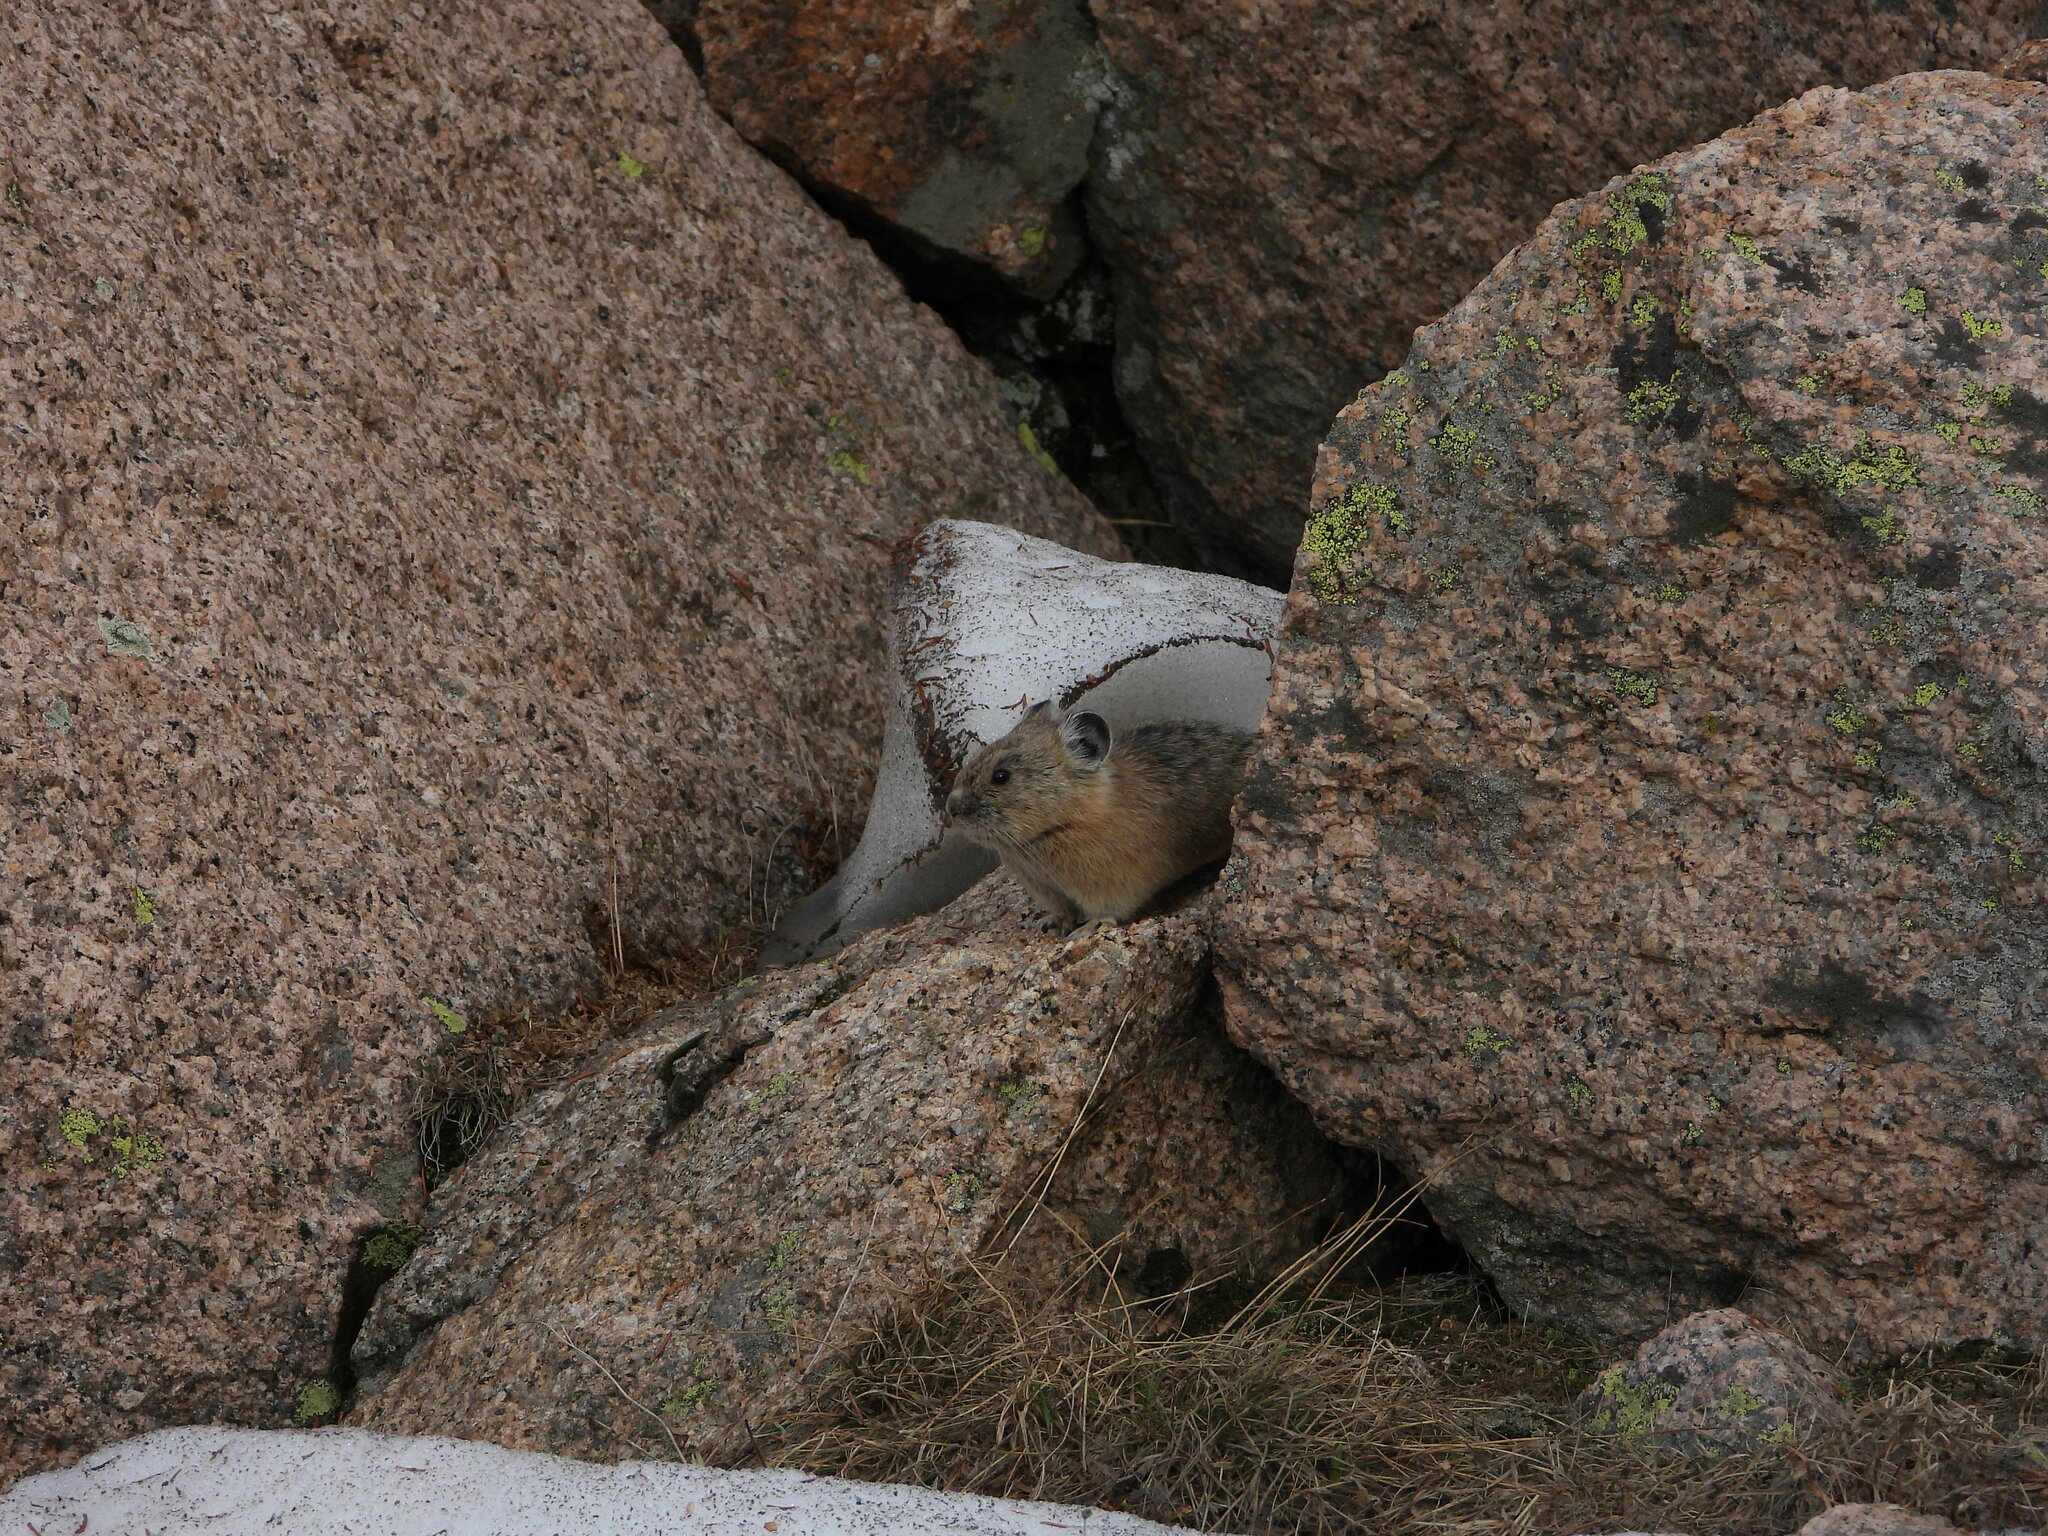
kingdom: Animalia
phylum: Chordata
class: Mammalia
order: Lagomorpha
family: Ochotonidae
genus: Ochotona
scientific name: Ochotona princeps
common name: American pika
